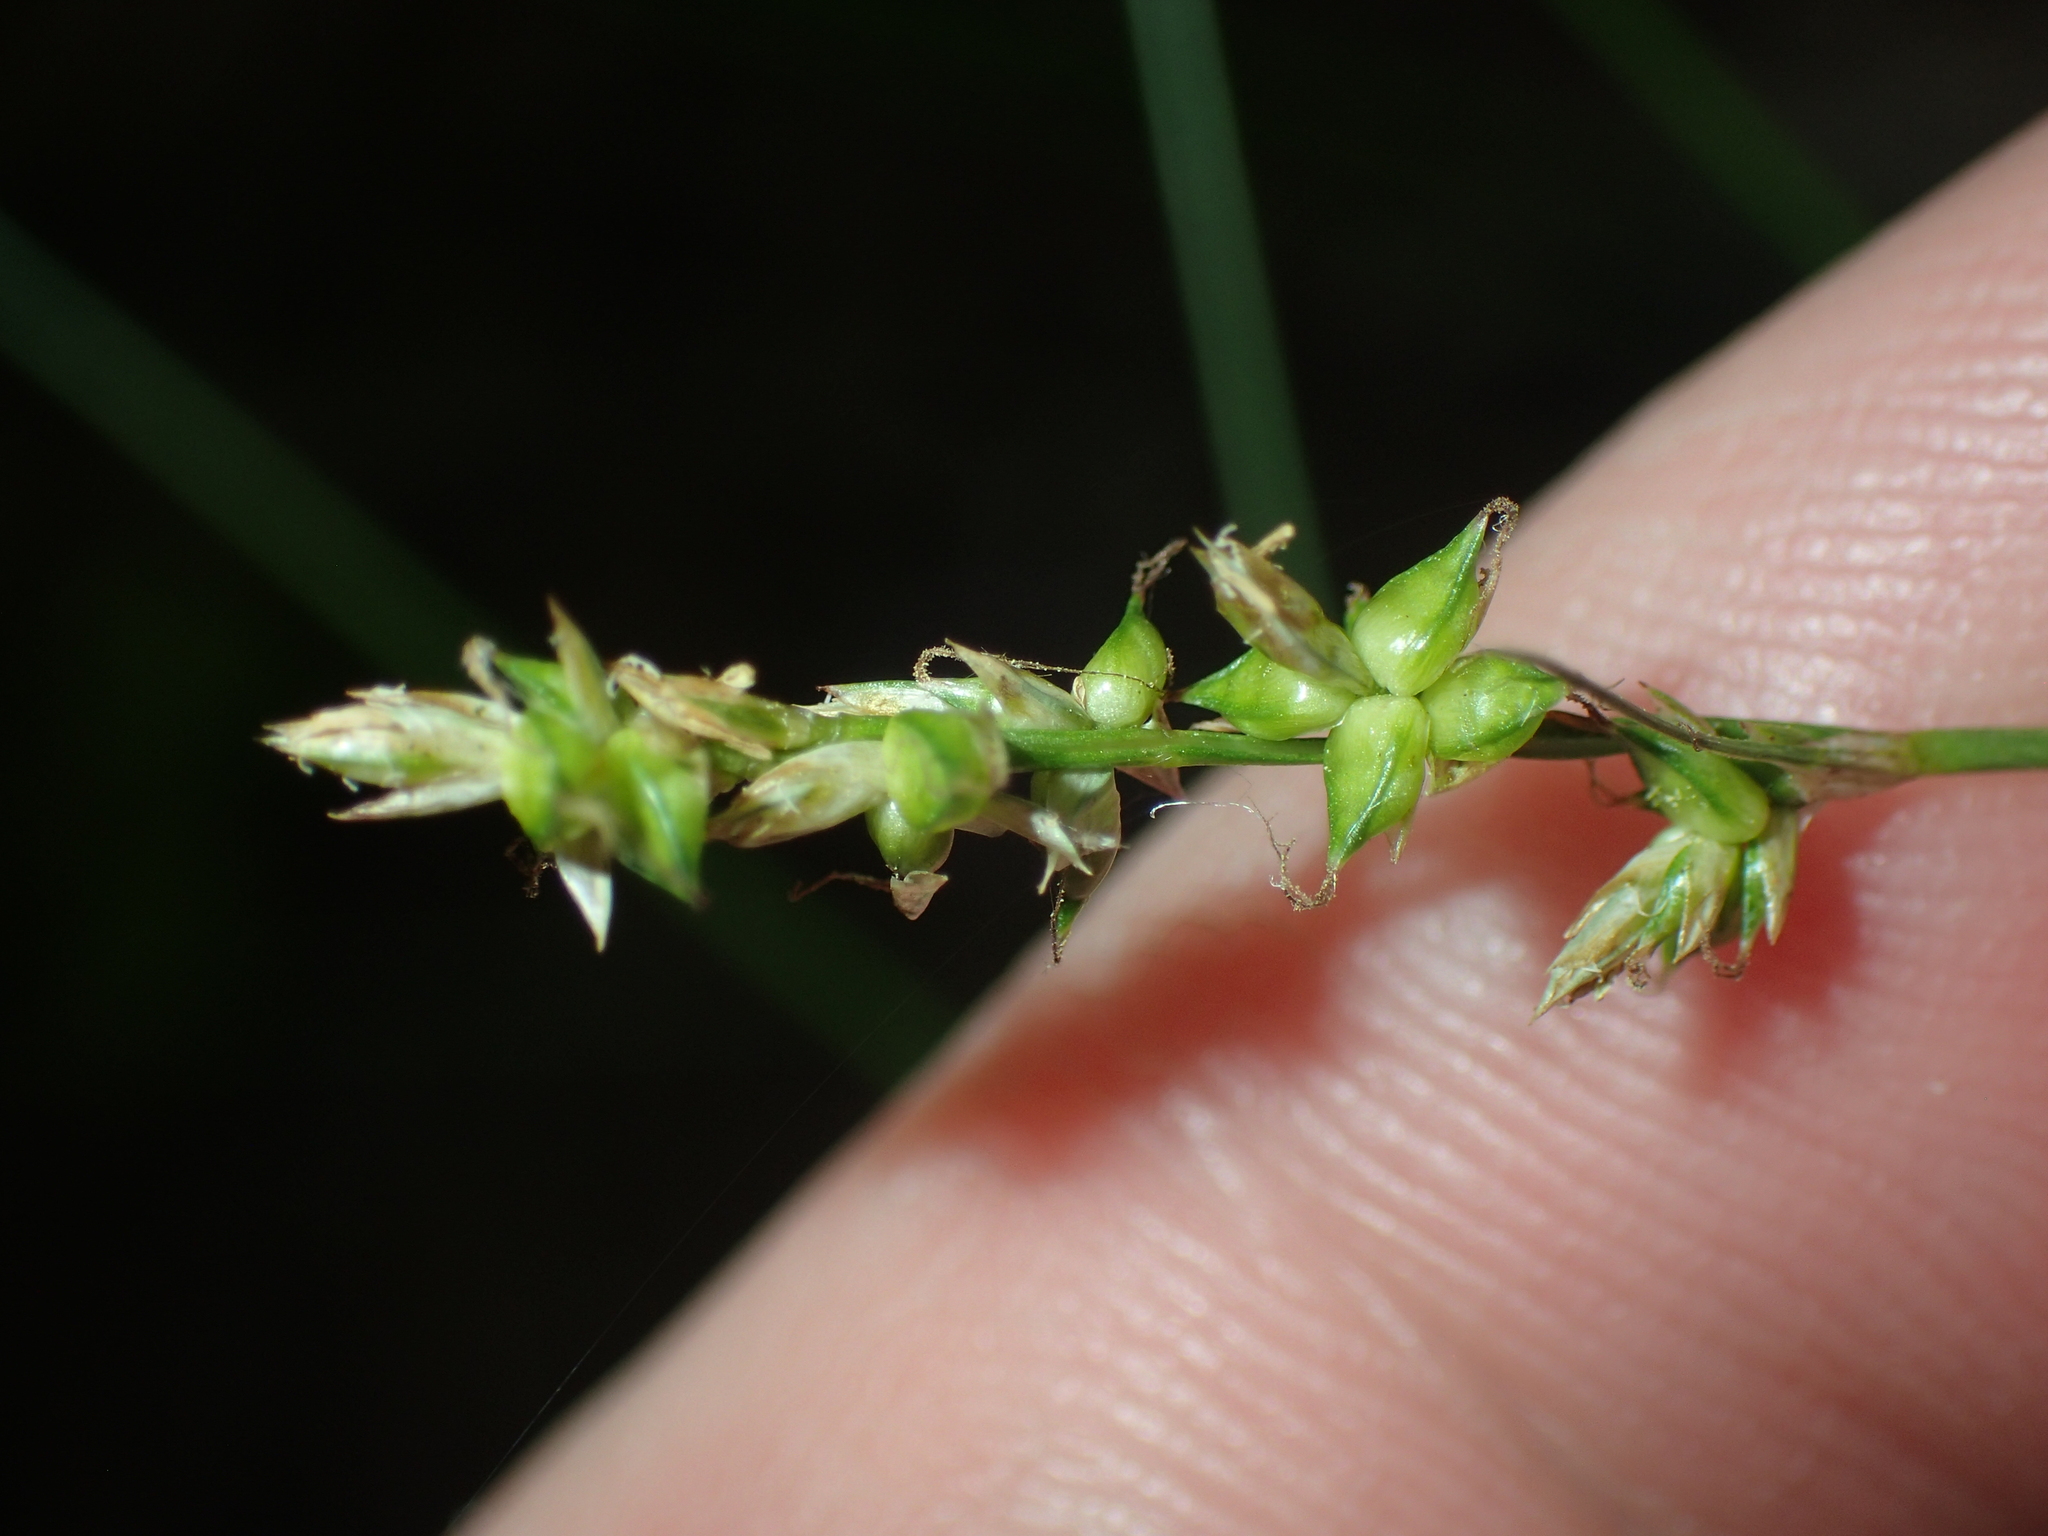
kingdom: Plantae
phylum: Tracheophyta
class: Liliopsida
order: Poales
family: Cyperaceae
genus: Carex
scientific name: Carex retroflexa
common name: Reflexed sedge
